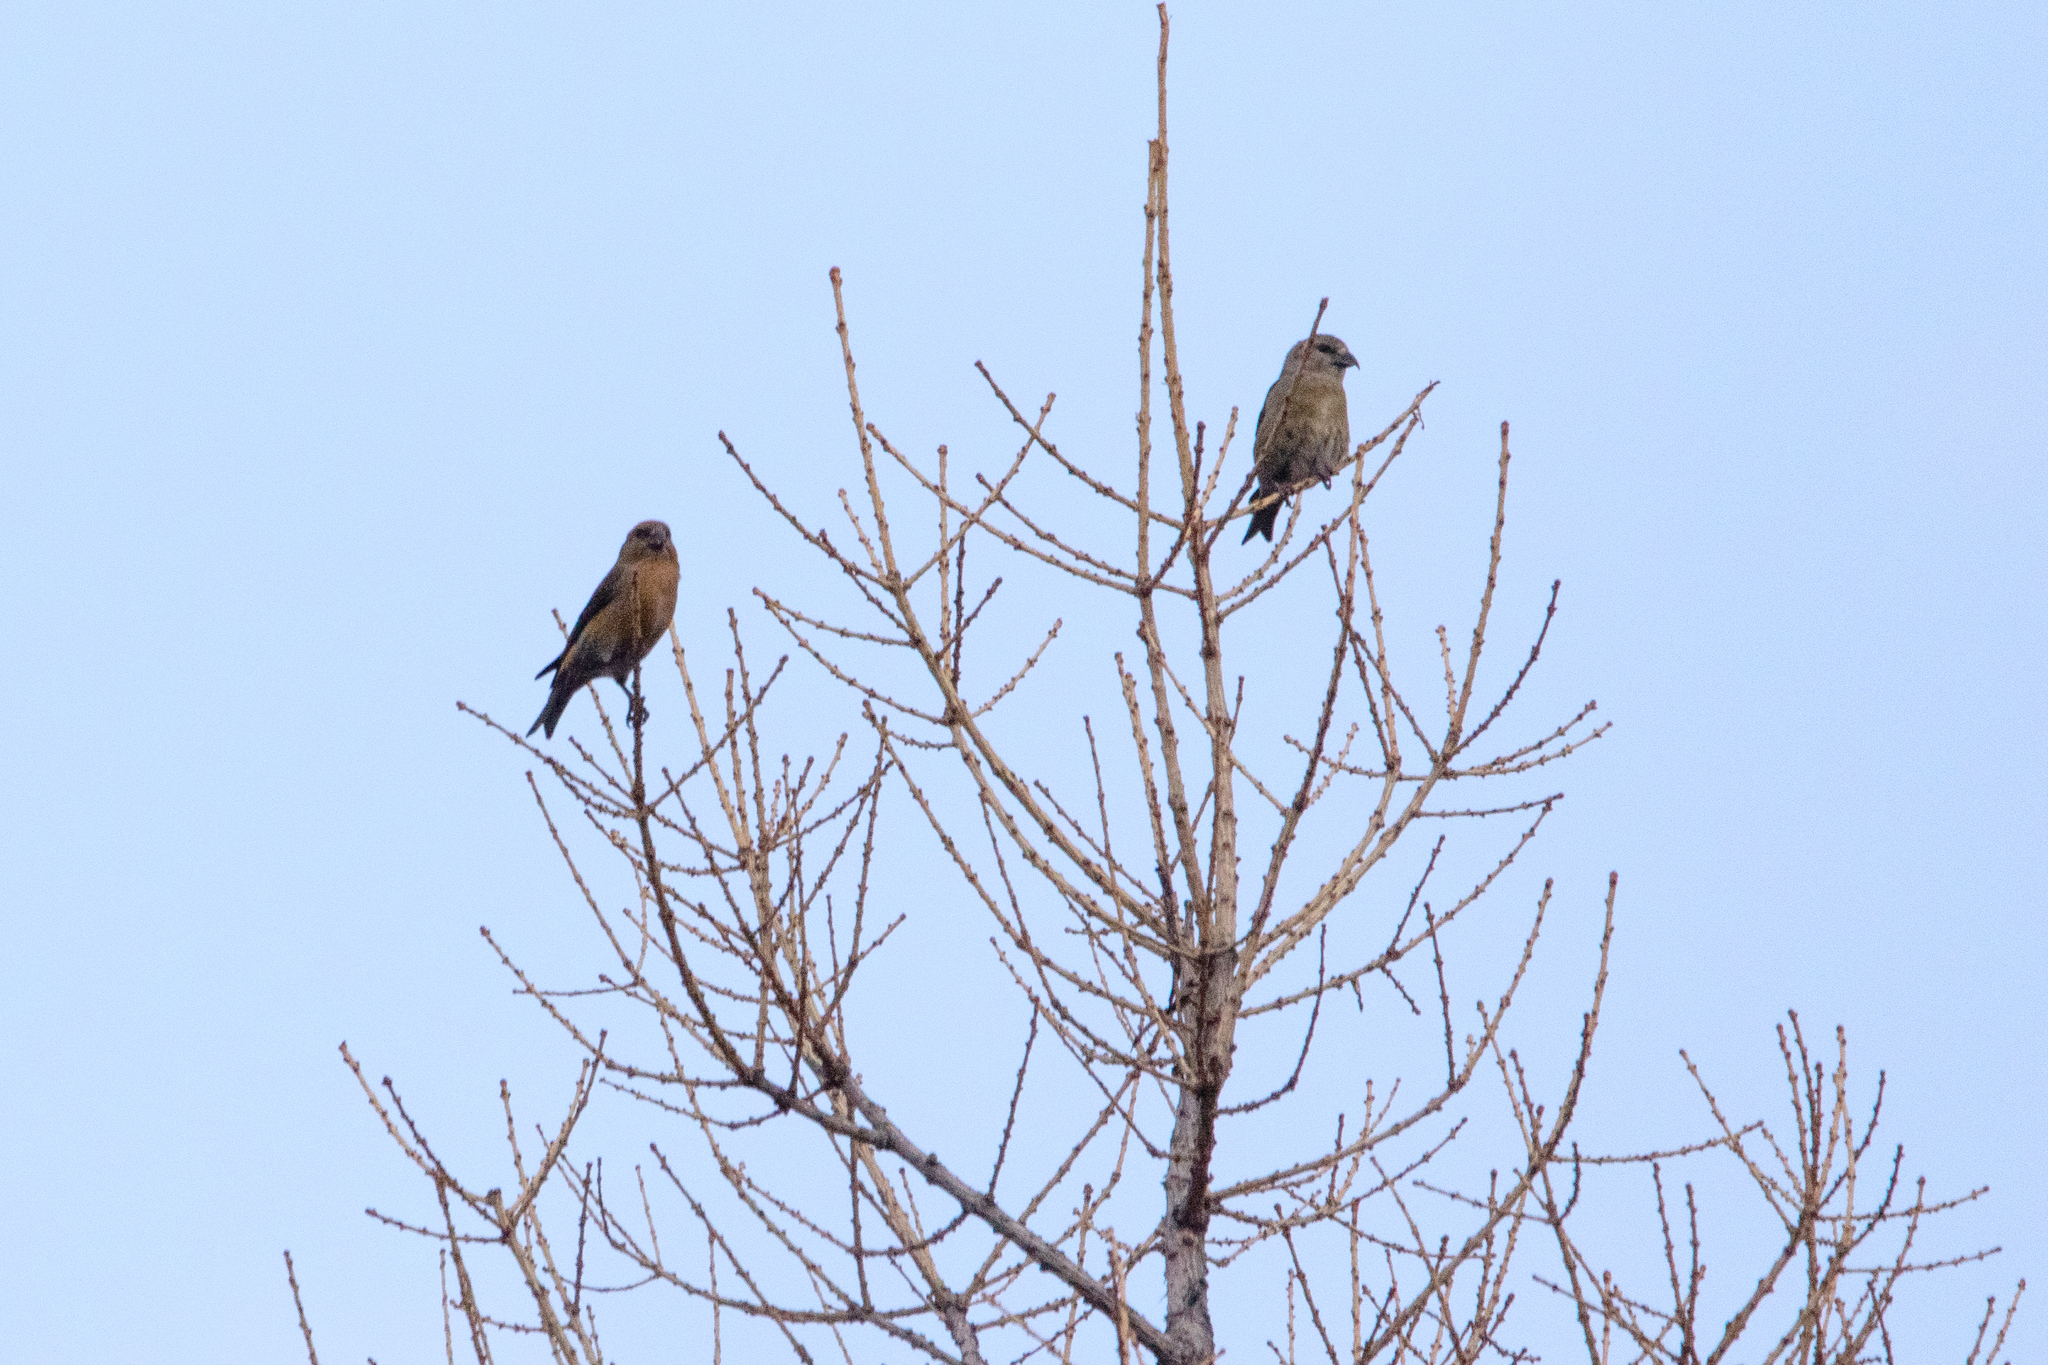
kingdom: Animalia
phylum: Chordata
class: Aves
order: Passeriformes
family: Fringillidae
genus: Loxia
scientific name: Loxia curvirostra
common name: Red crossbill
